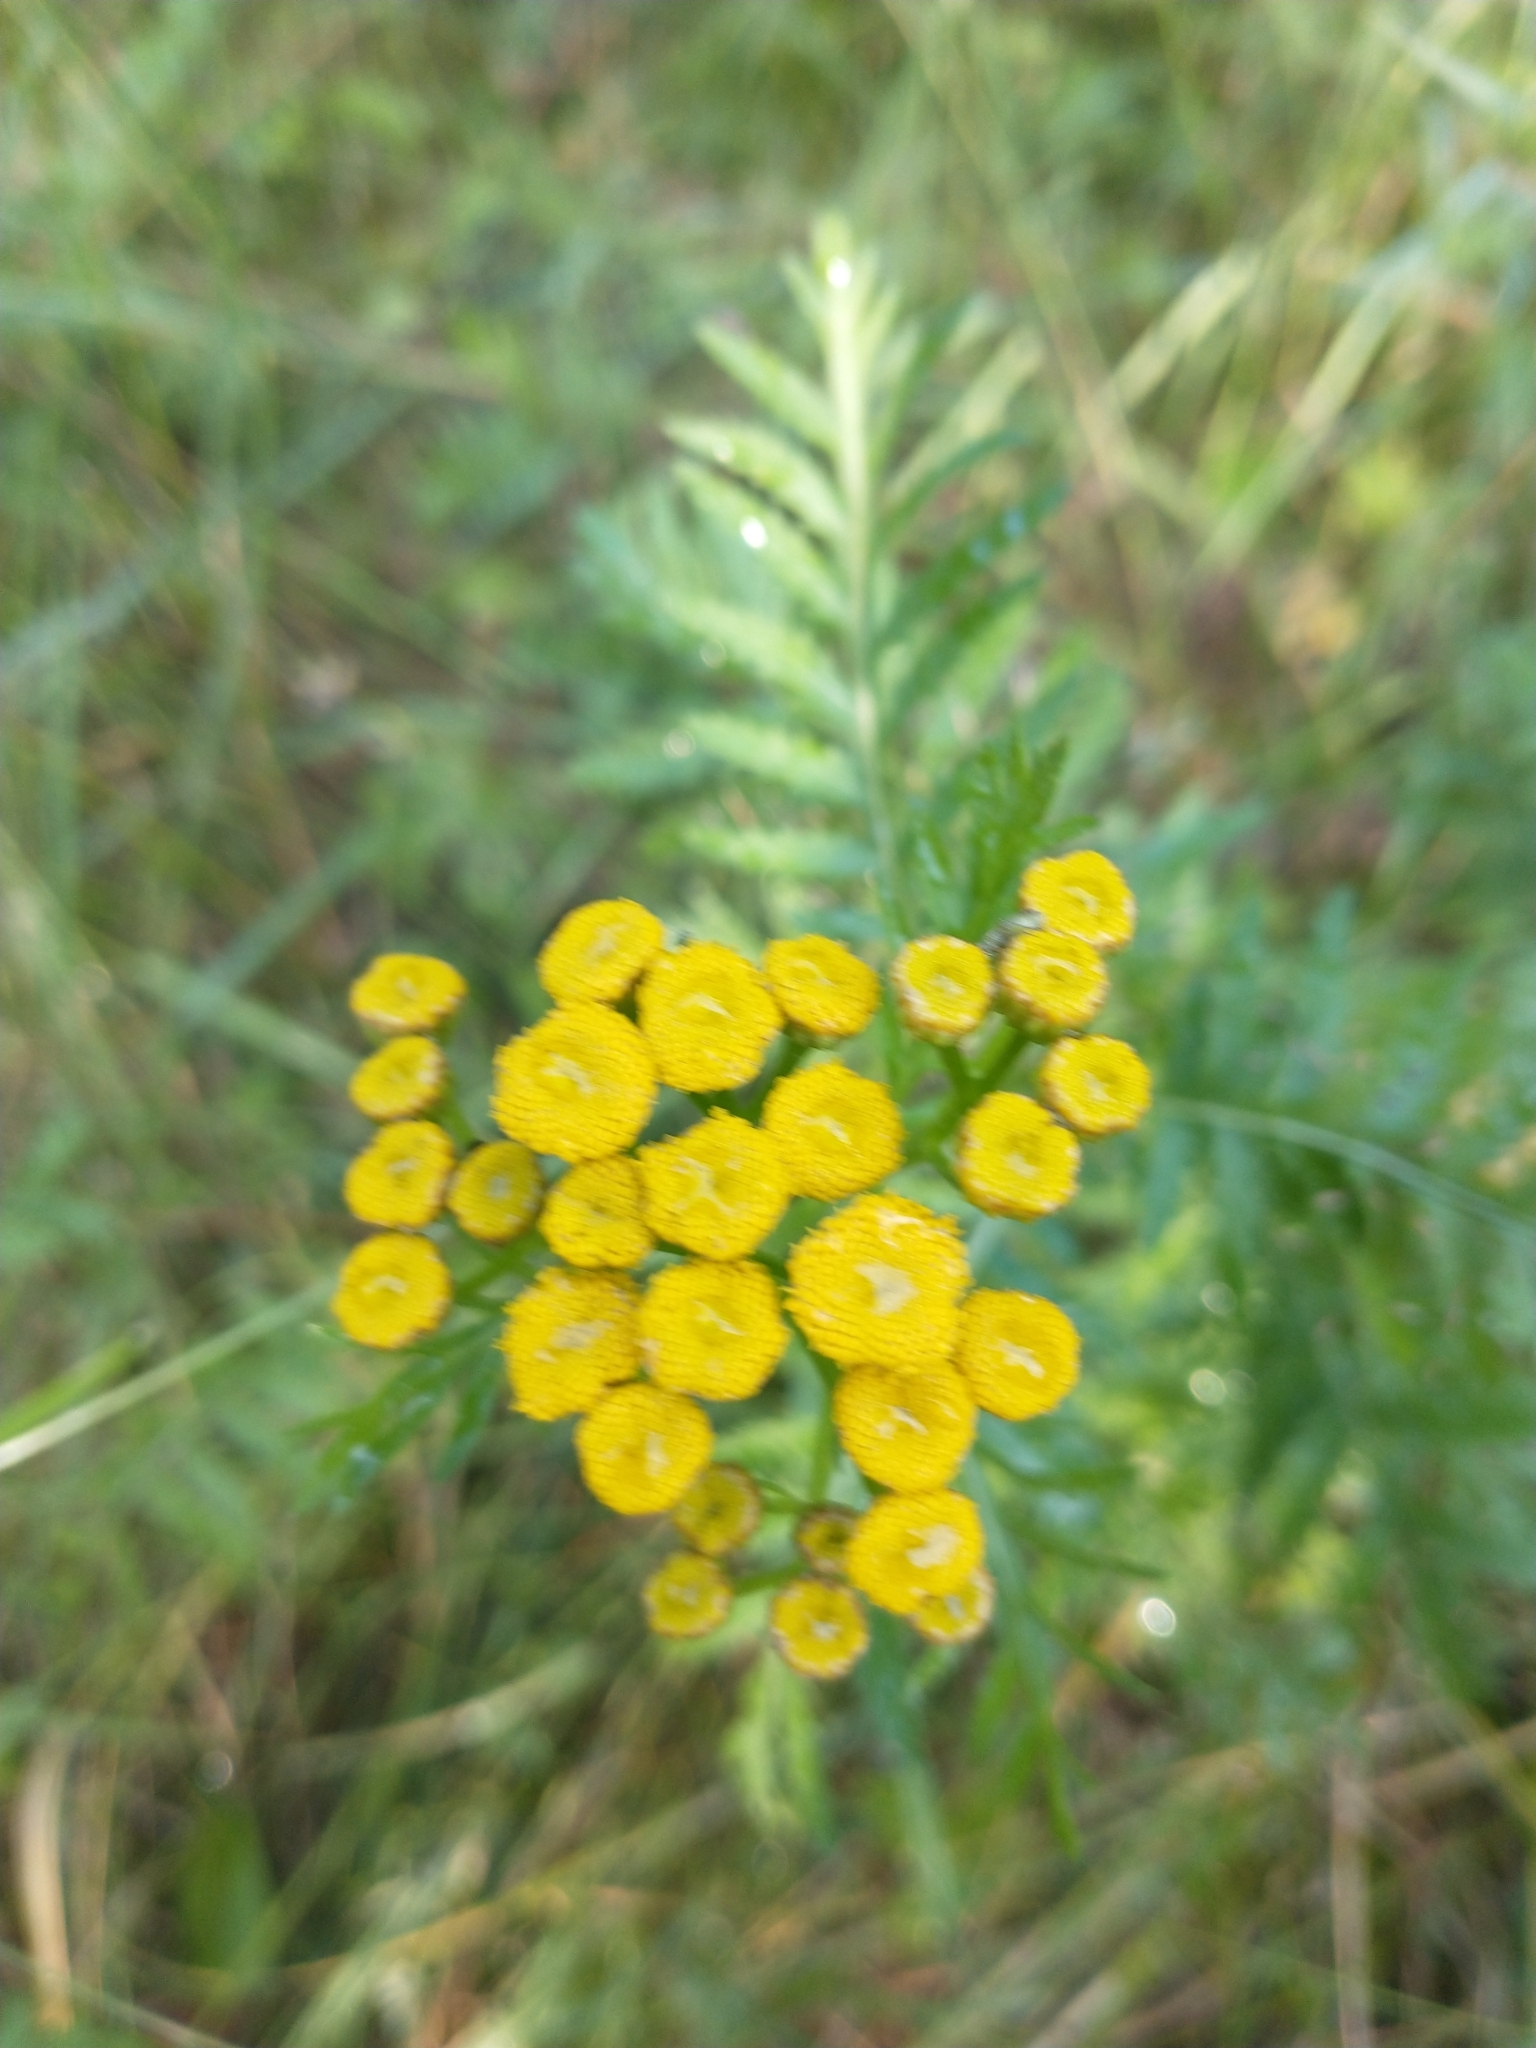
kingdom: Plantae
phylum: Tracheophyta
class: Magnoliopsida
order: Asterales
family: Asteraceae
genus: Tanacetum
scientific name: Tanacetum vulgare
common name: Common tansy
